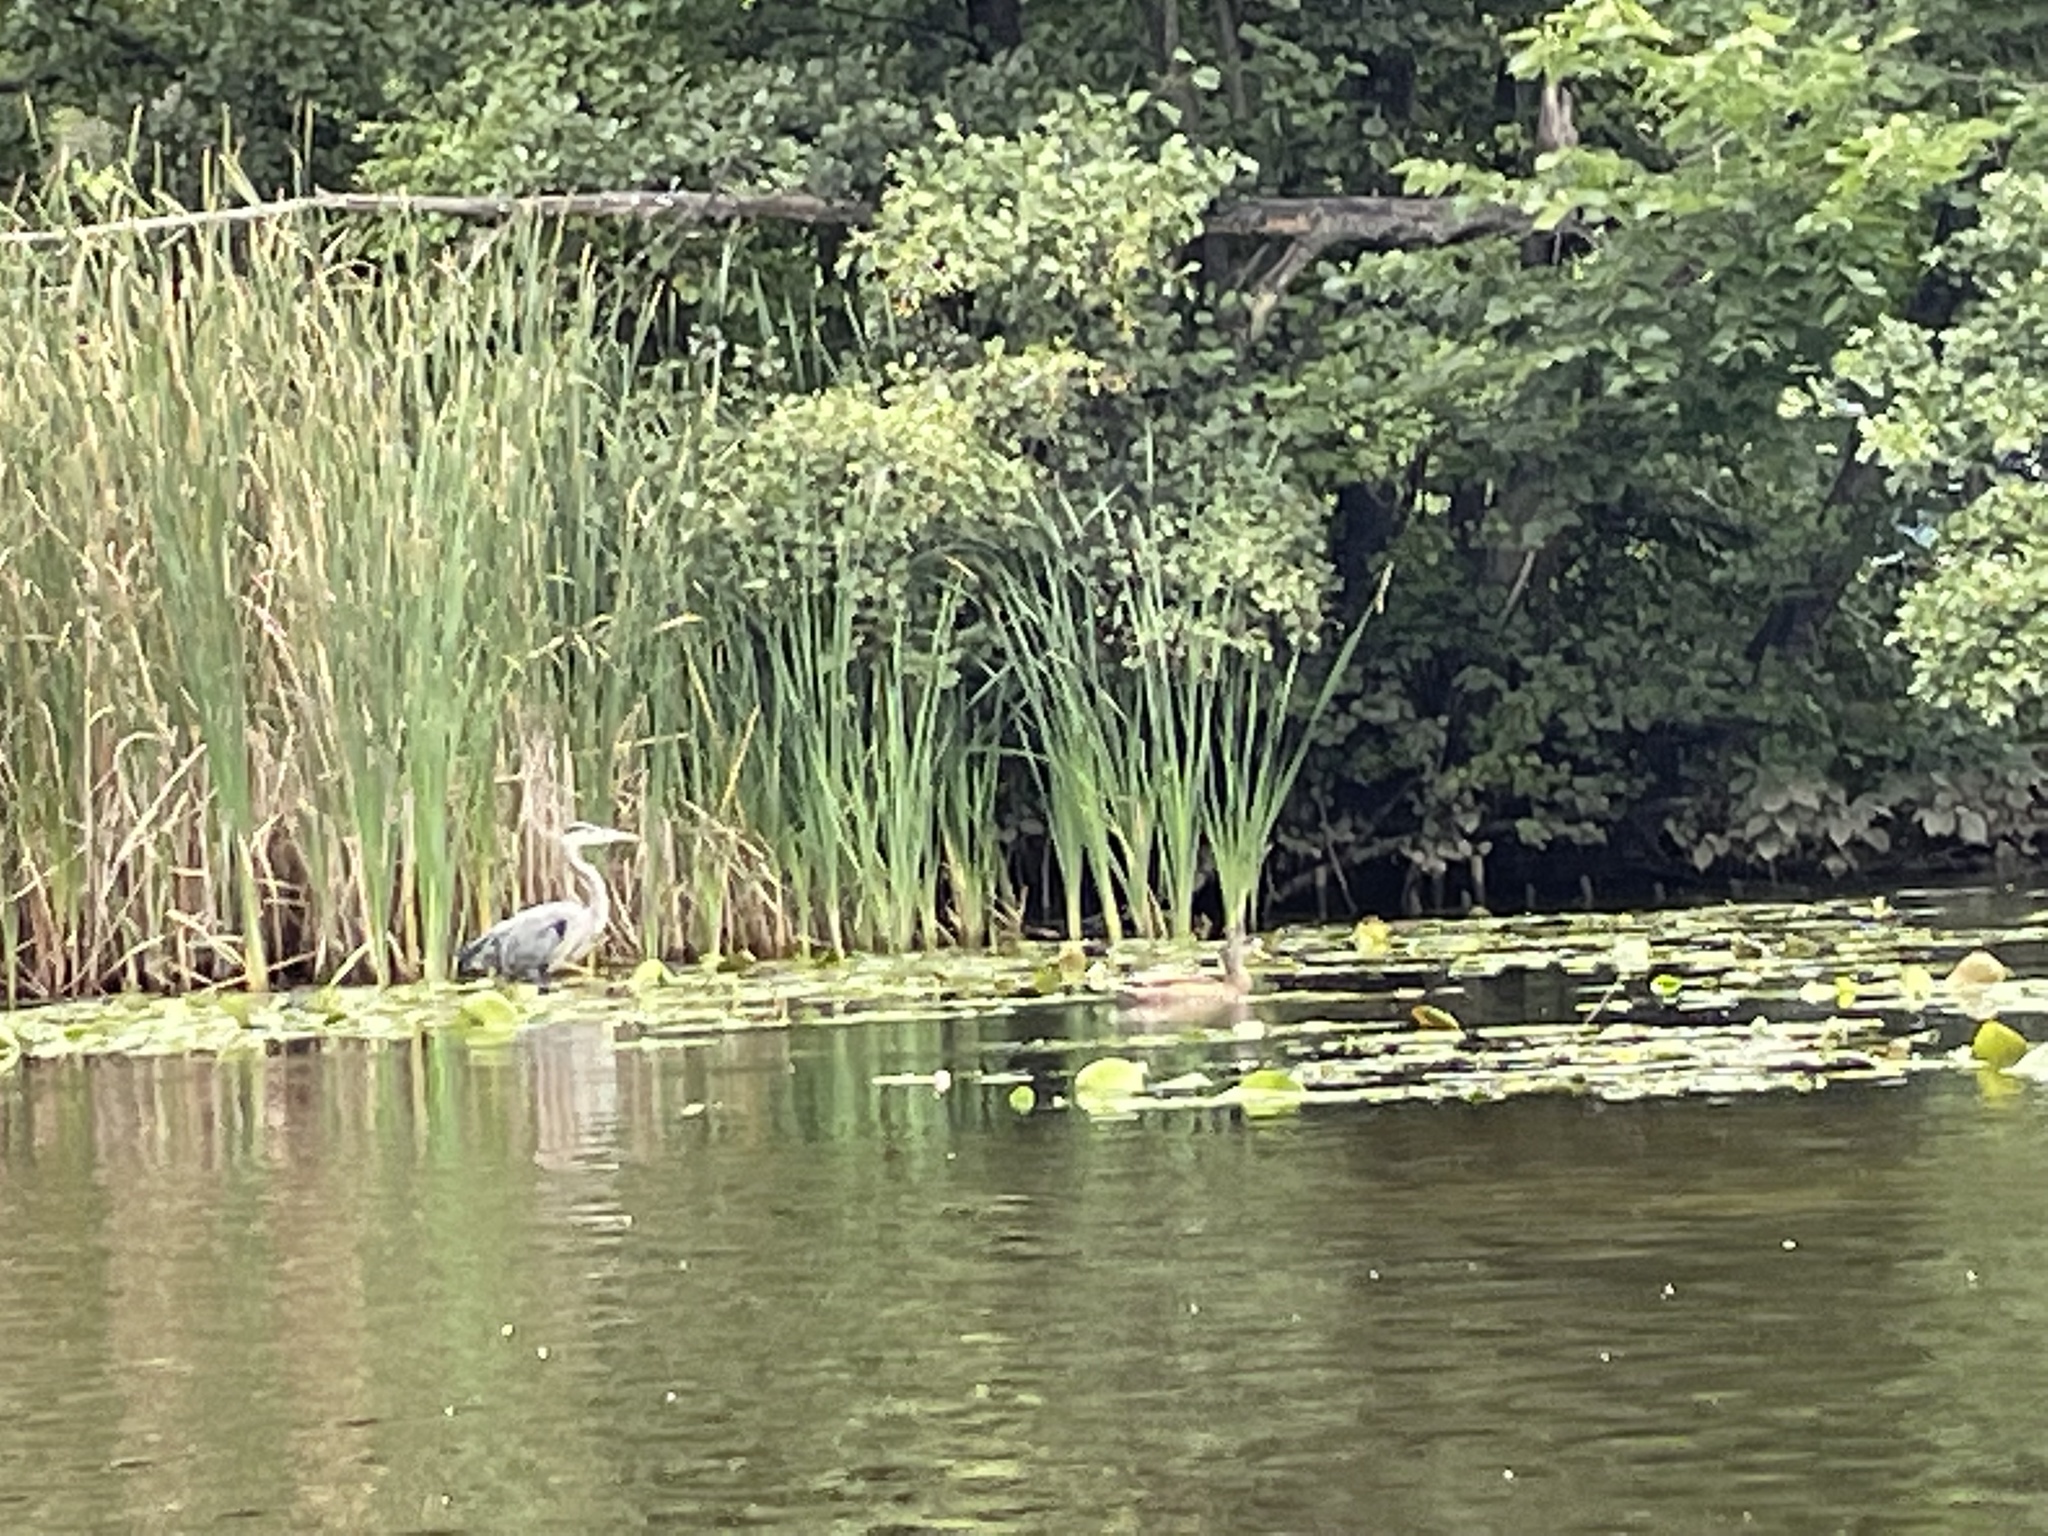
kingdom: Animalia
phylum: Chordata
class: Aves
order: Pelecaniformes
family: Ardeidae
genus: Ardea
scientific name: Ardea herodias
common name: Great blue heron
